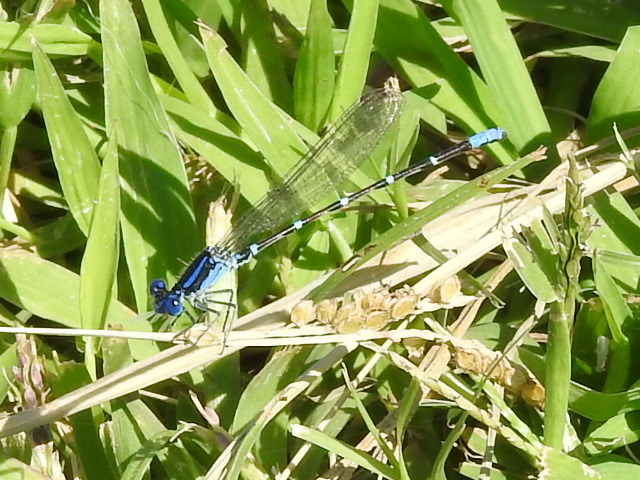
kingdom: Animalia
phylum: Arthropoda
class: Insecta
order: Odonata
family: Coenagrionidae
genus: Argia
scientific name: Argia sedula
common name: Blue-ringed dancer
